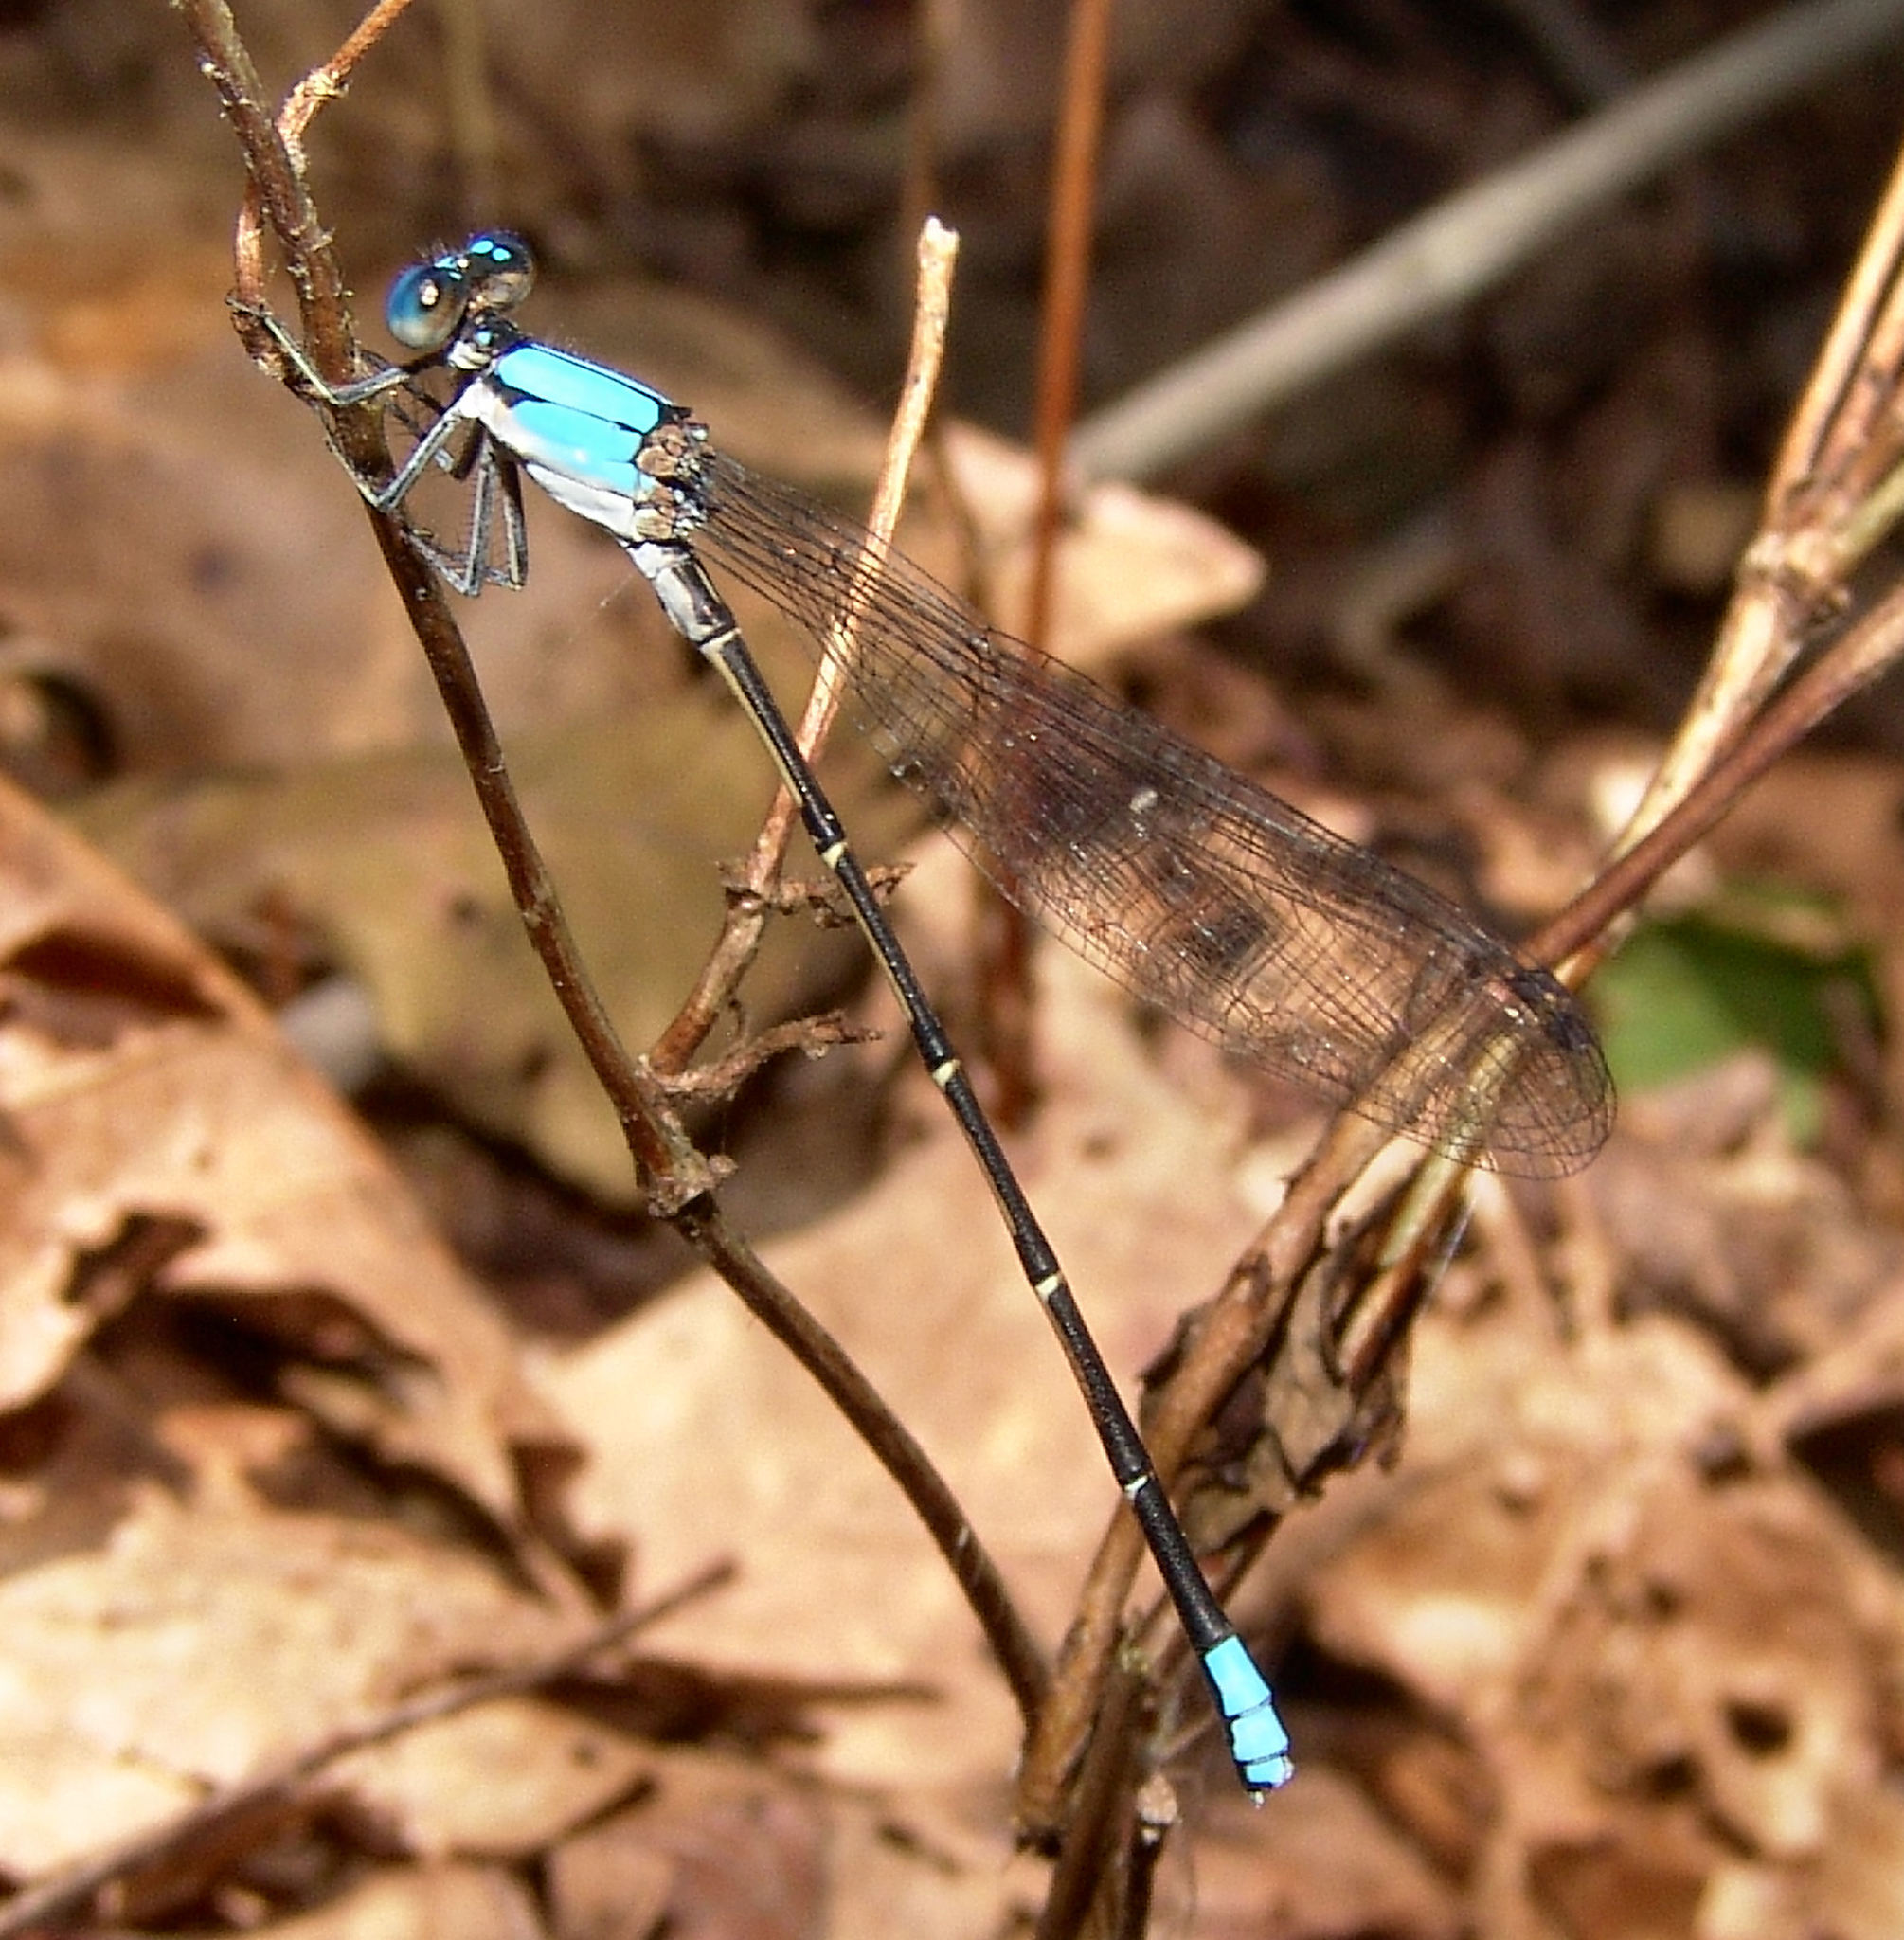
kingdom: Animalia
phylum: Arthropoda
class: Insecta
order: Odonata
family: Coenagrionidae
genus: Argia
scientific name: Argia apicalis
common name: Blue-fronted dancer
